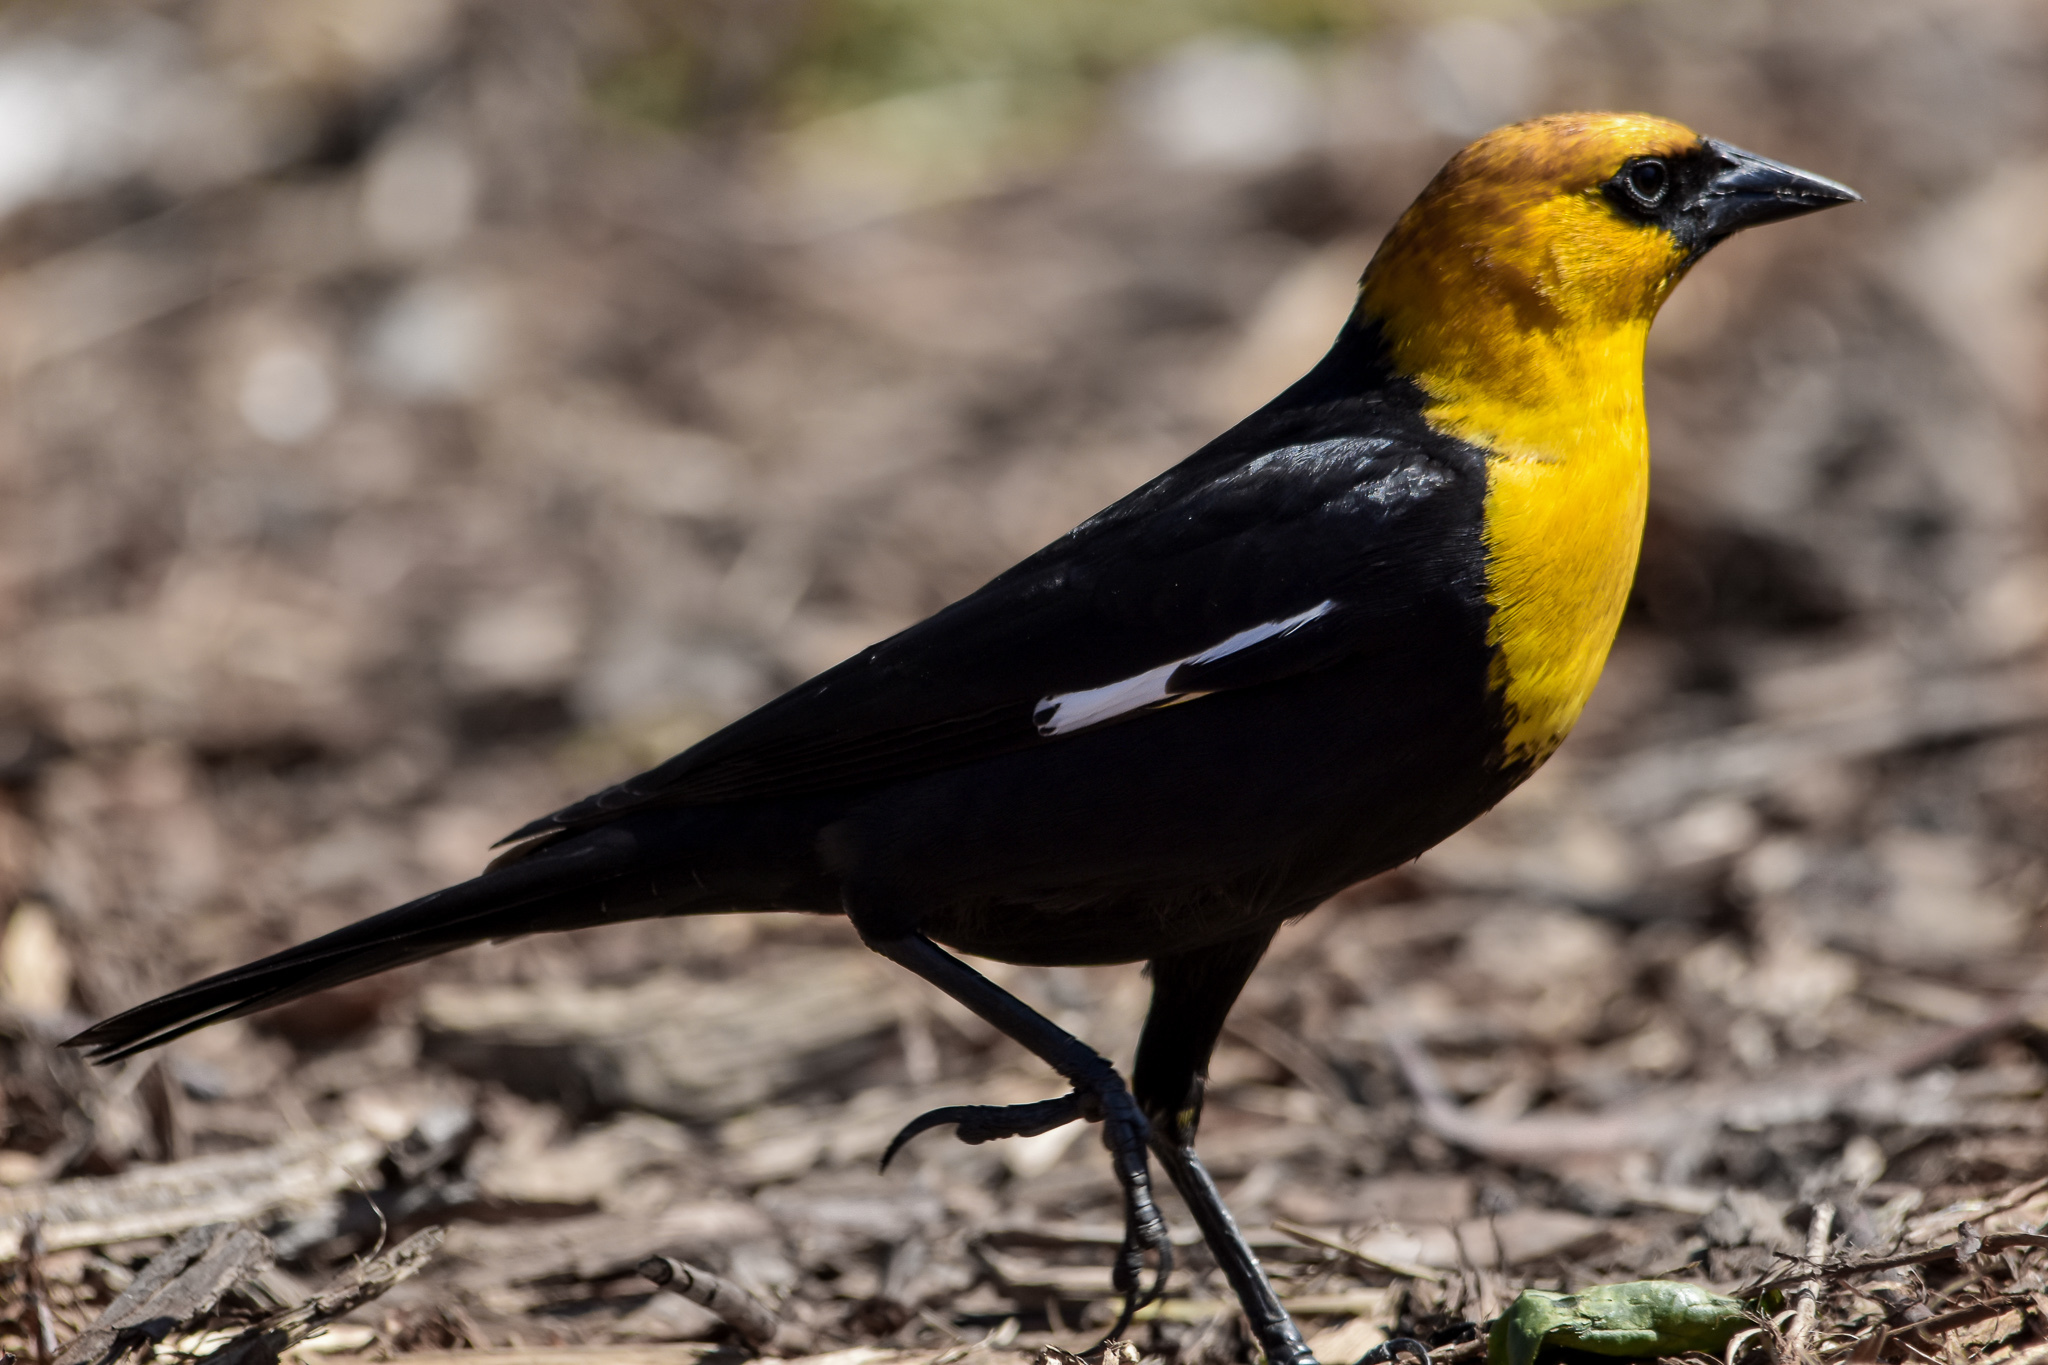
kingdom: Animalia
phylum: Chordata
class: Aves
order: Passeriformes
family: Icteridae
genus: Xanthocephalus
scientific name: Xanthocephalus xanthocephalus
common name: Yellow-headed blackbird
